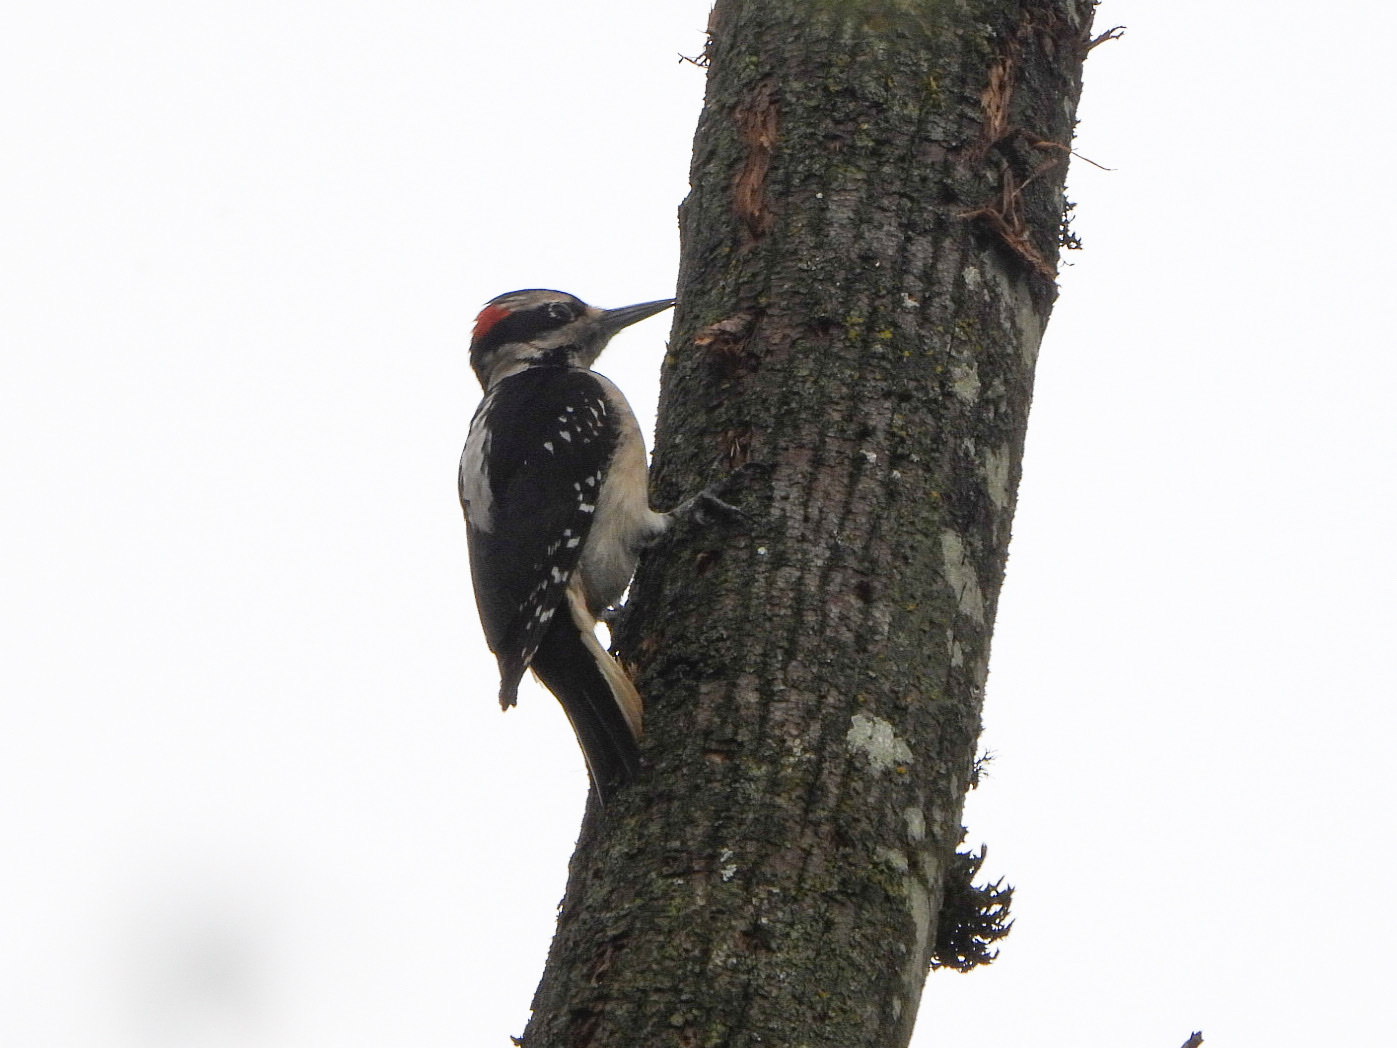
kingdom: Animalia
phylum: Chordata
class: Aves
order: Piciformes
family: Picidae
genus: Leuconotopicus
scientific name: Leuconotopicus villosus
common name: Hairy woodpecker
